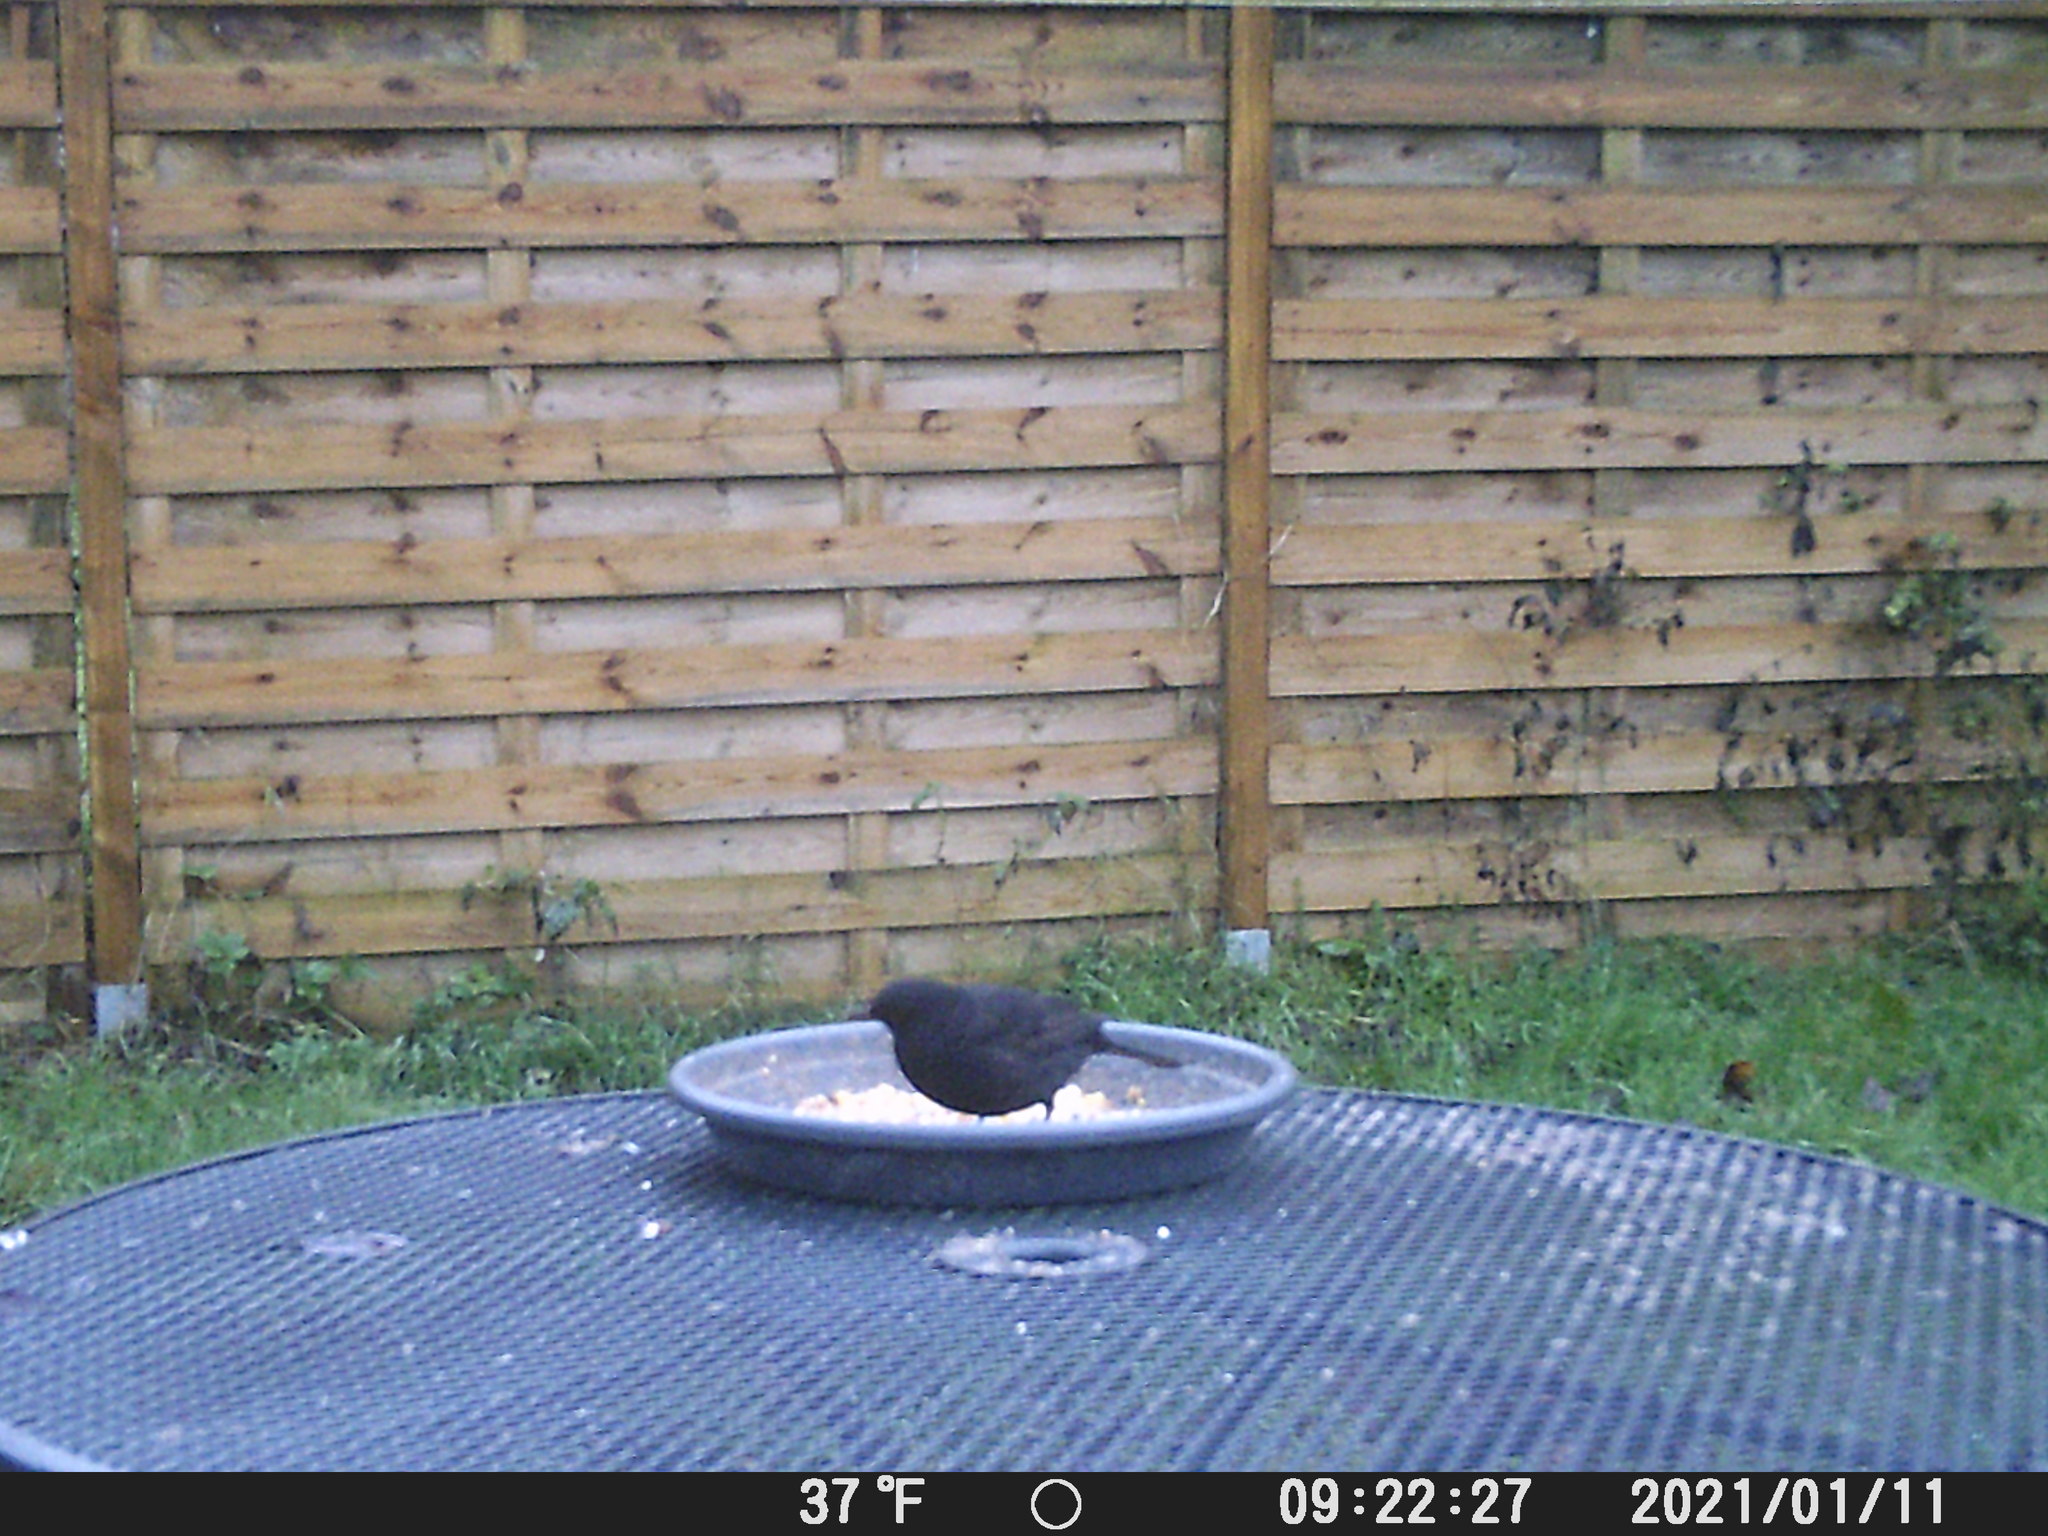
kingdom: Animalia
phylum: Chordata
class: Aves
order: Passeriformes
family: Turdidae
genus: Turdus
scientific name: Turdus merula
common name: Common blackbird
